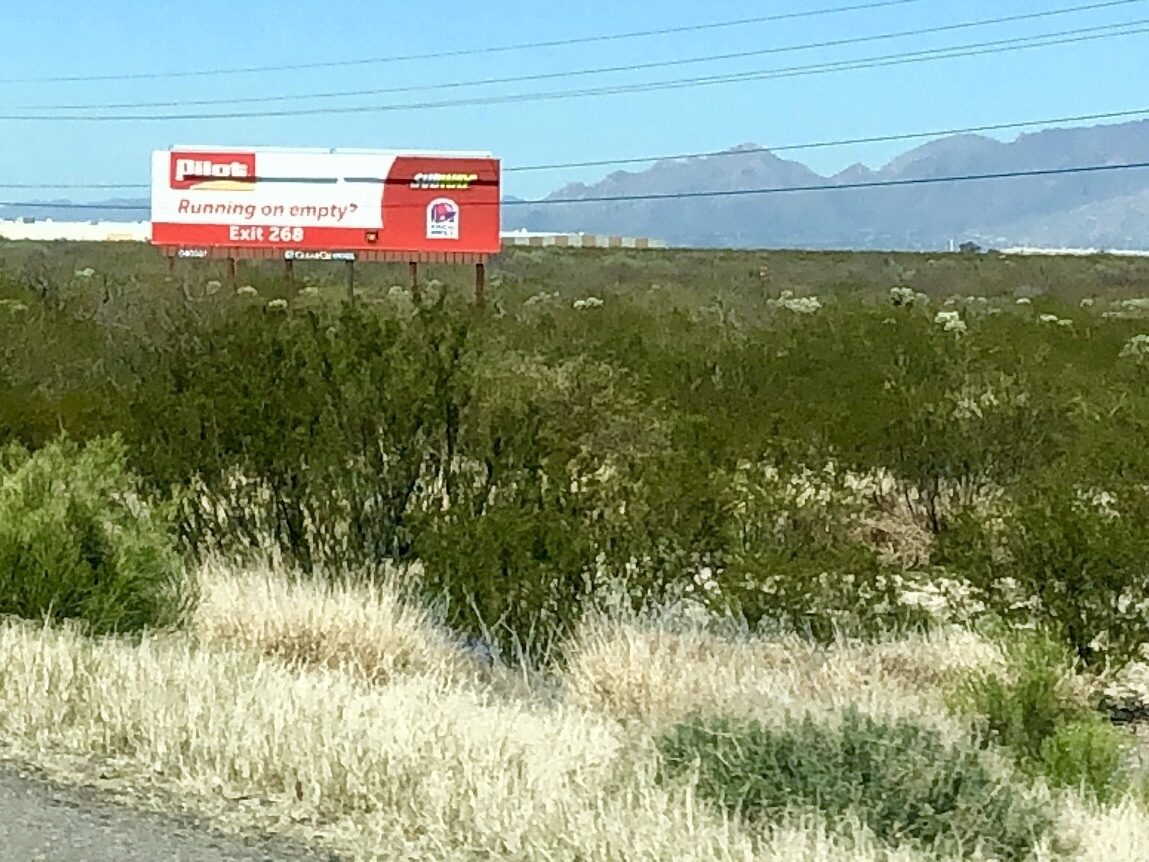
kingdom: Plantae
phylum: Tracheophyta
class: Magnoliopsida
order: Zygophyllales
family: Zygophyllaceae
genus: Larrea
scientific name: Larrea tridentata
